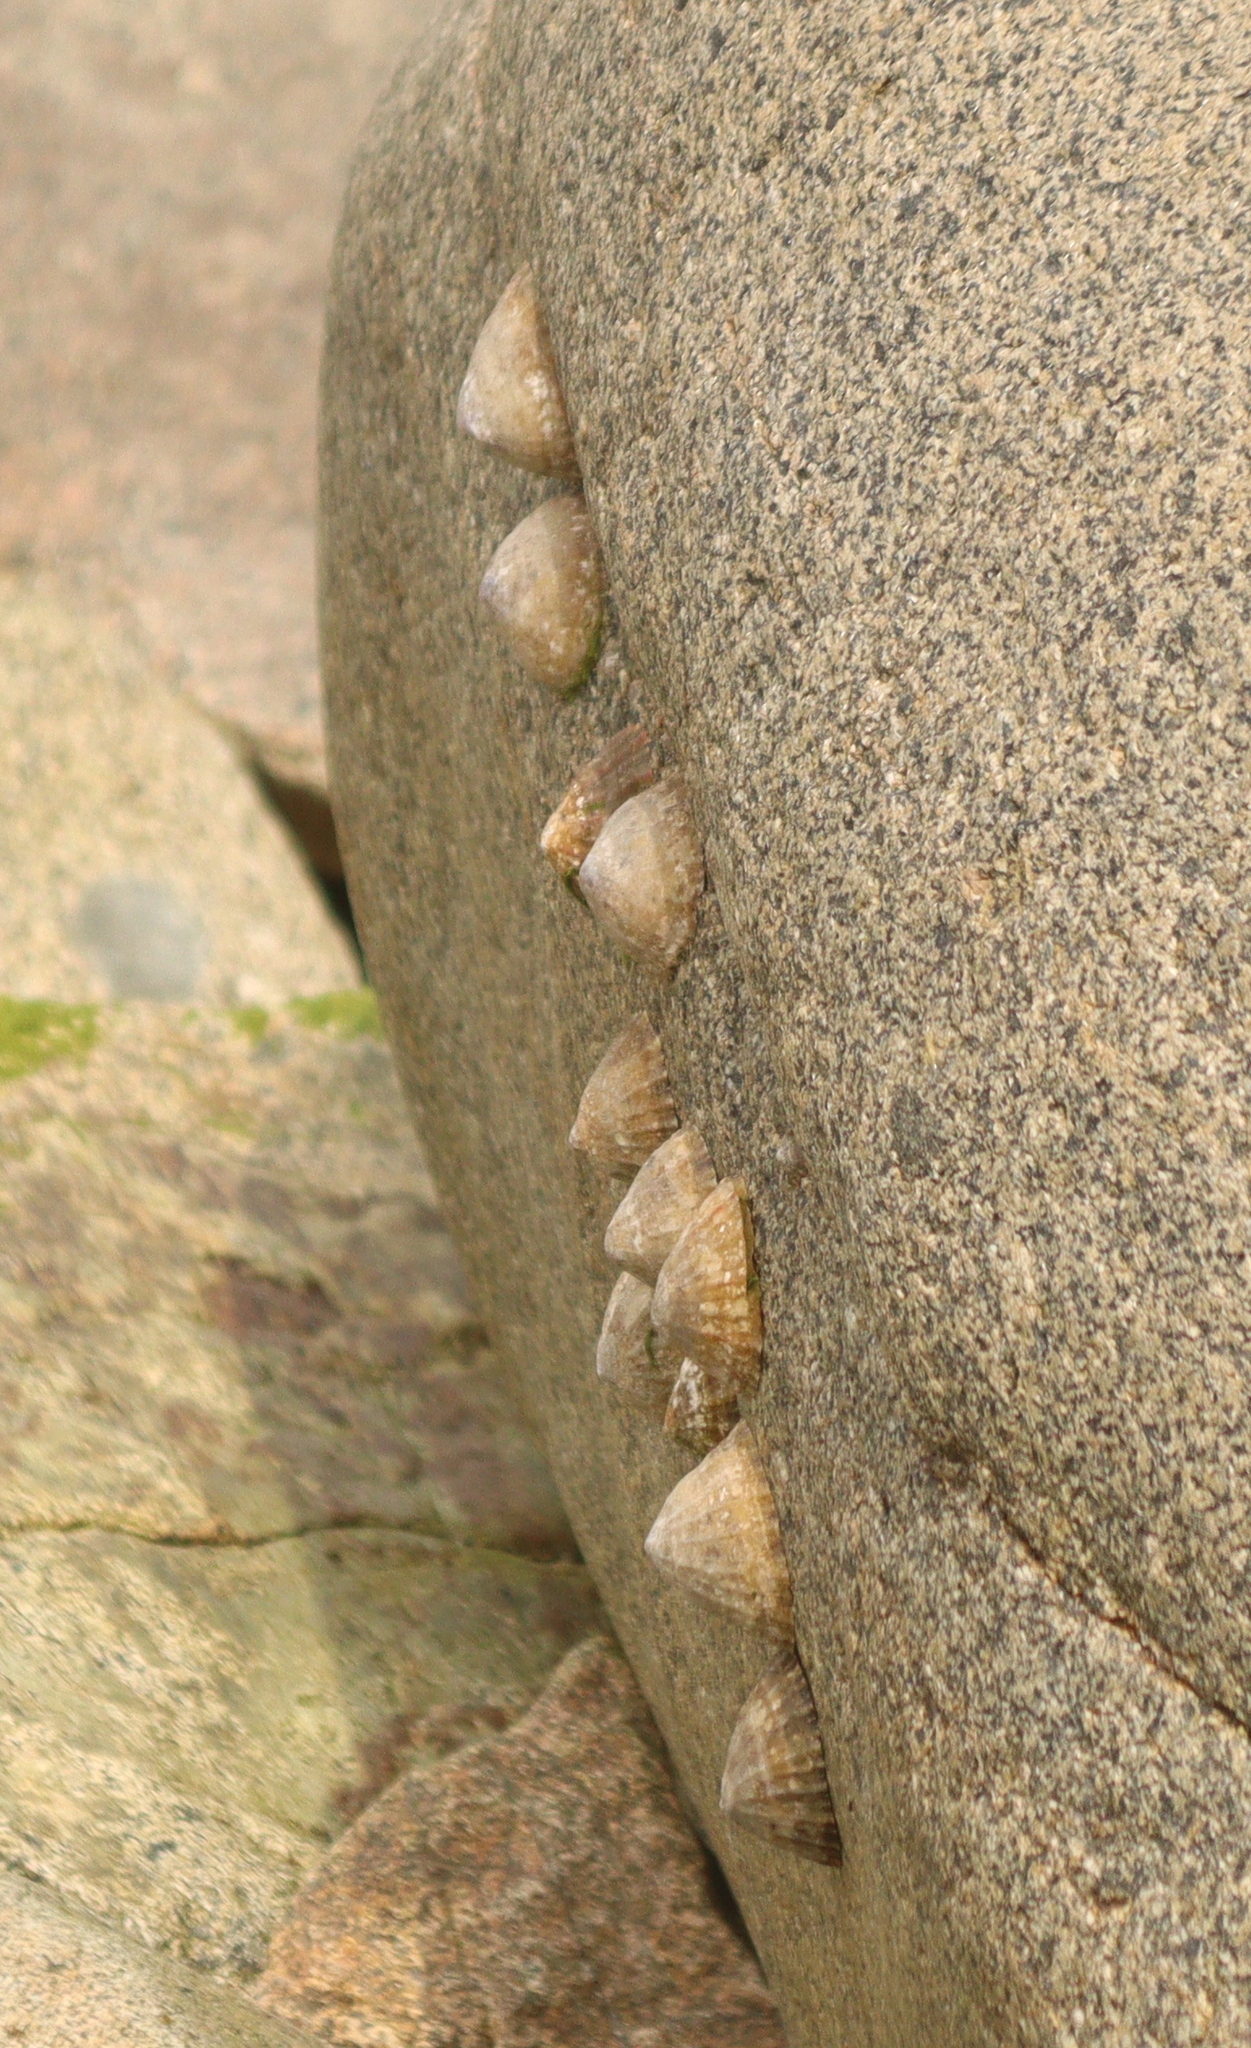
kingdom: Animalia
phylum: Mollusca
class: Gastropoda
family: Patellidae
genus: Patella
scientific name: Patella vulgata
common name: Common limpet
